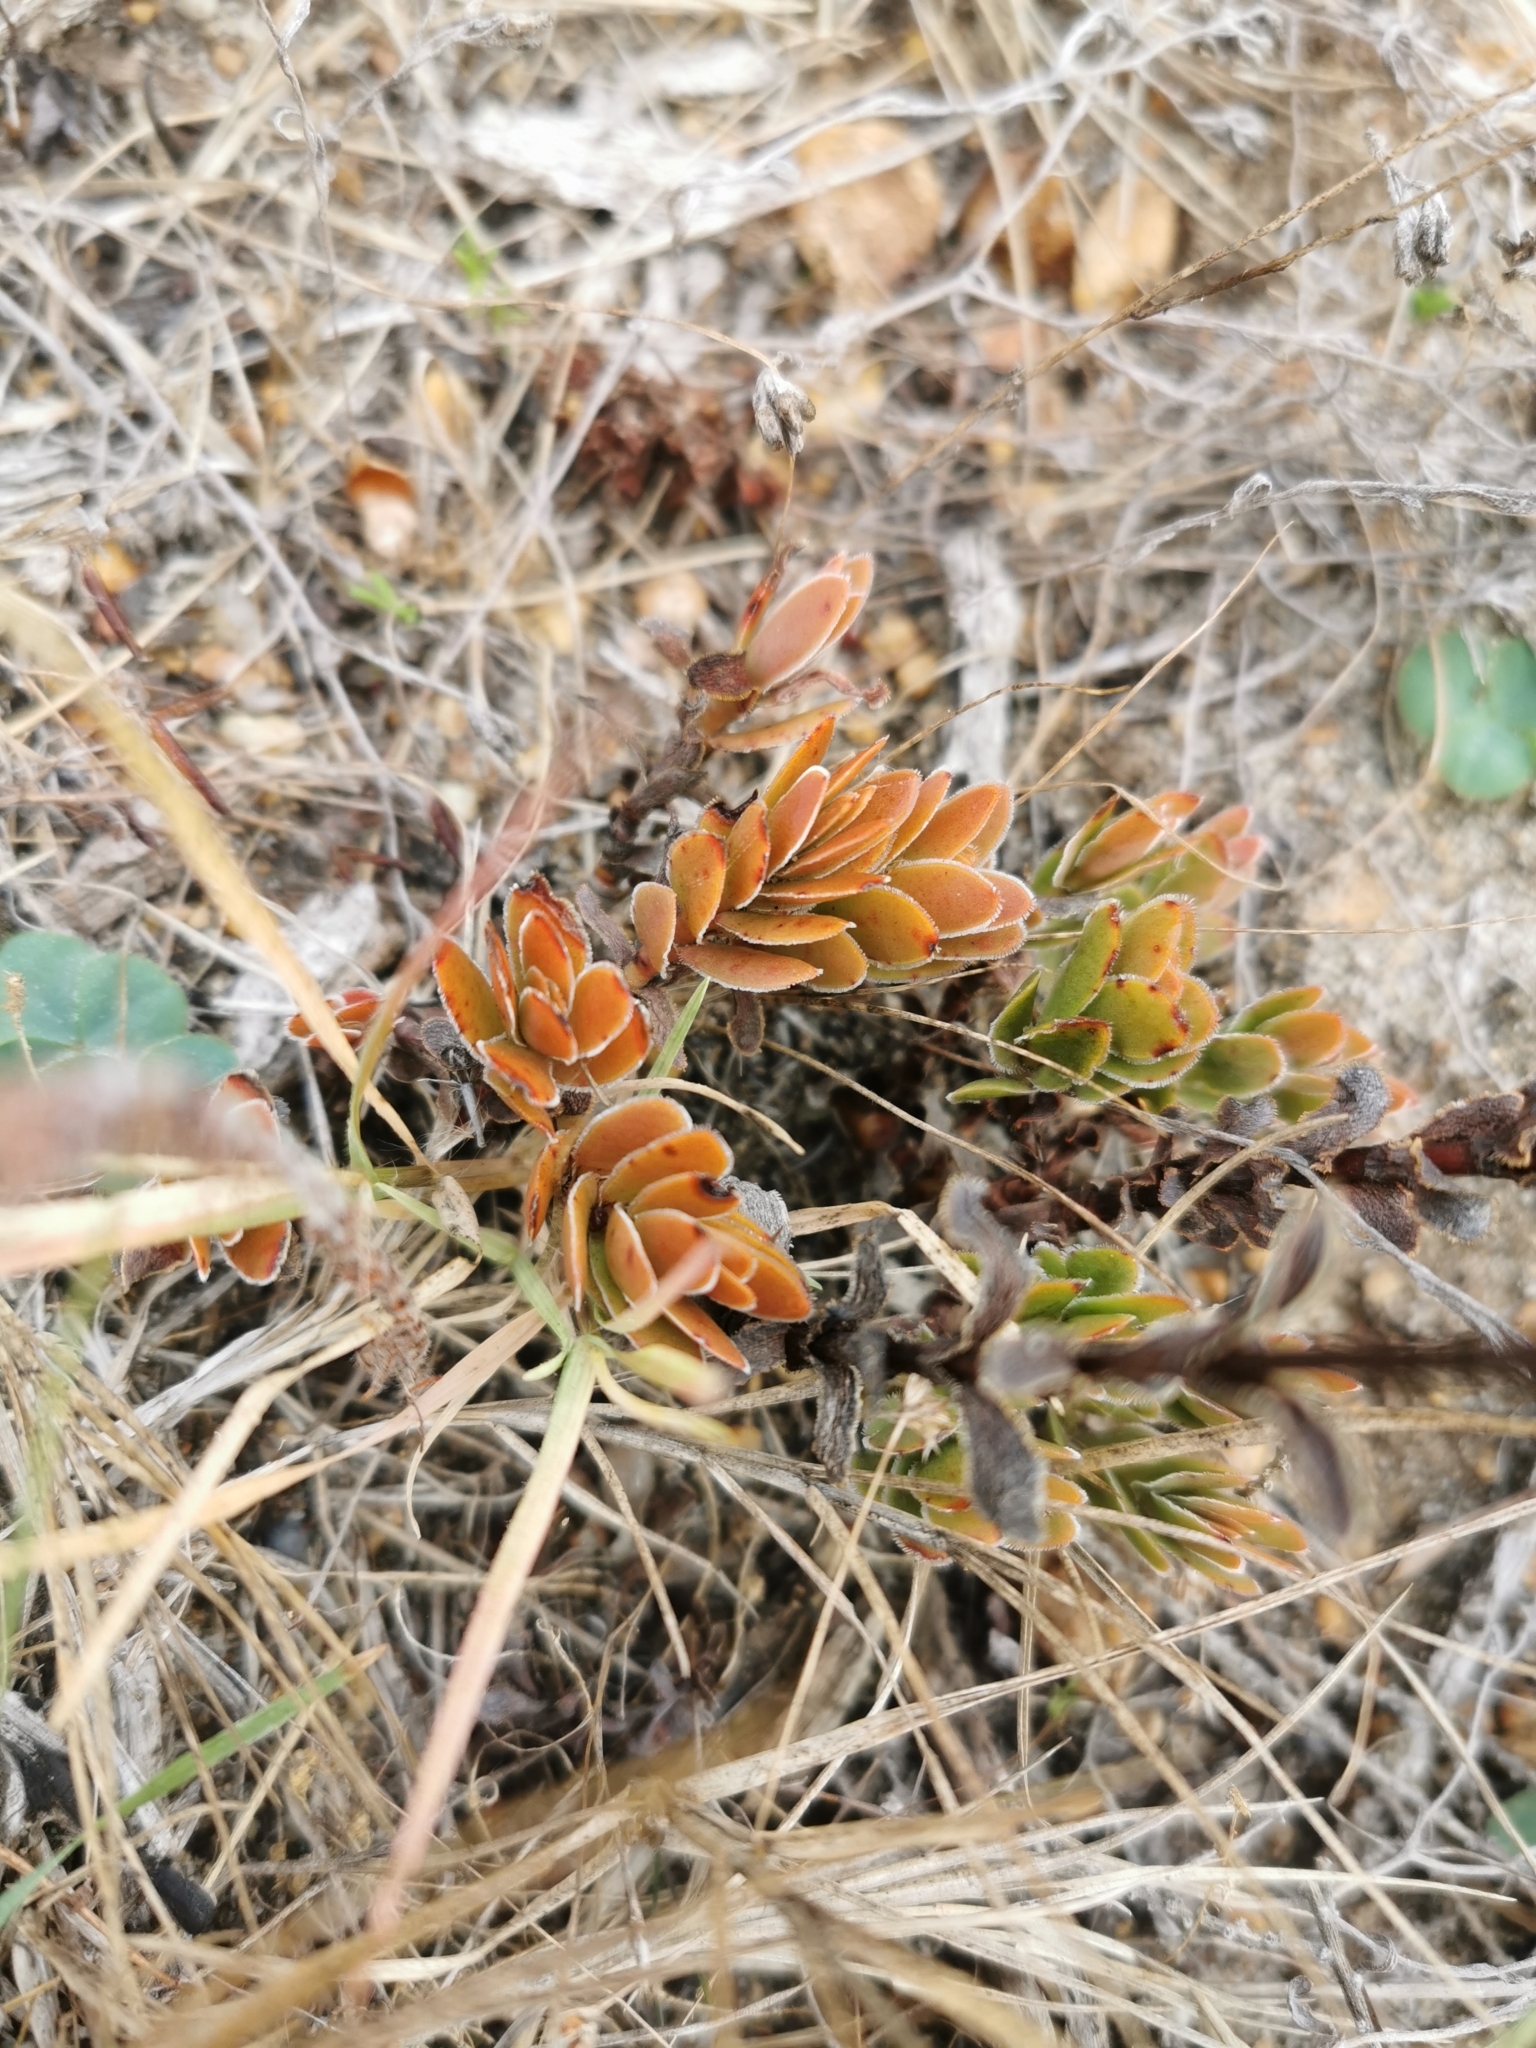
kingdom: Plantae
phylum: Tracheophyta
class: Magnoliopsida
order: Saxifragales
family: Crassulaceae
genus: Crassula
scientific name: Crassula fallax
